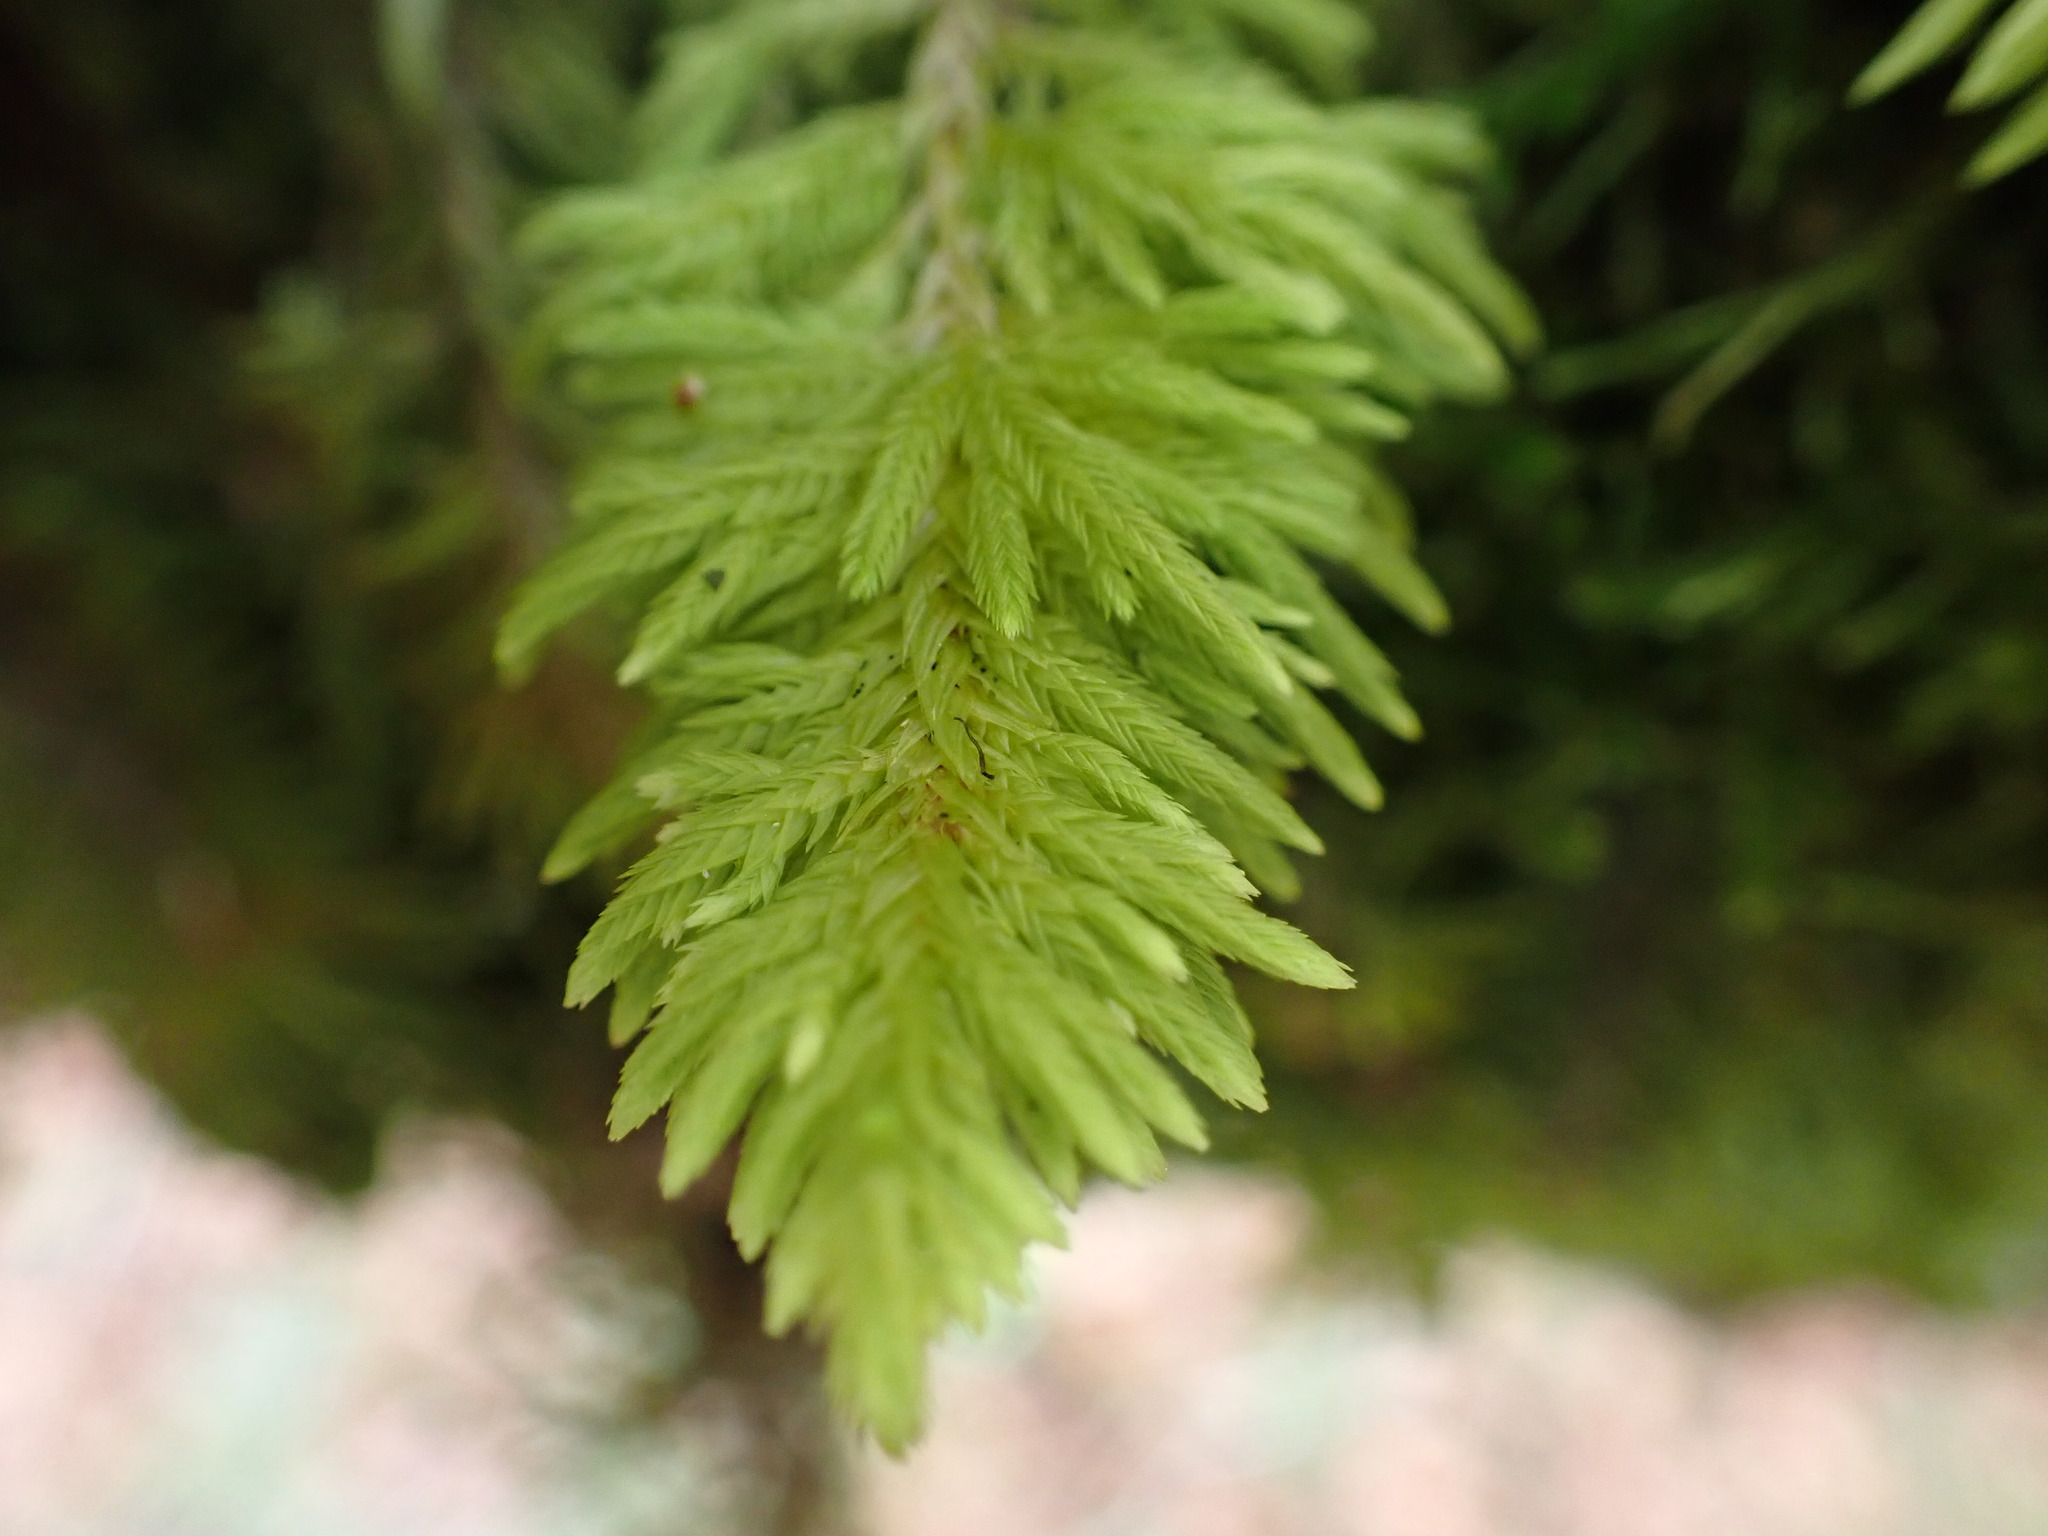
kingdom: Plantae
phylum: Bryophyta
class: Bryopsida
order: Hypnales
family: Cryphaeaceae
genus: Dendroalsia
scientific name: Dendroalsia abietina
